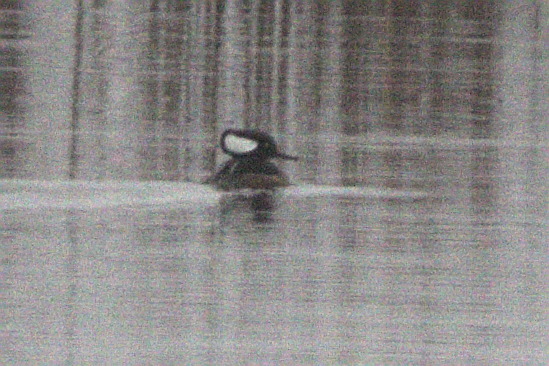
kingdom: Animalia
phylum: Chordata
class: Aves
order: Anseriformes
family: Anatidae
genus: Lophodytes
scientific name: Lophodytes cucullatus
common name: Hooded merganser
